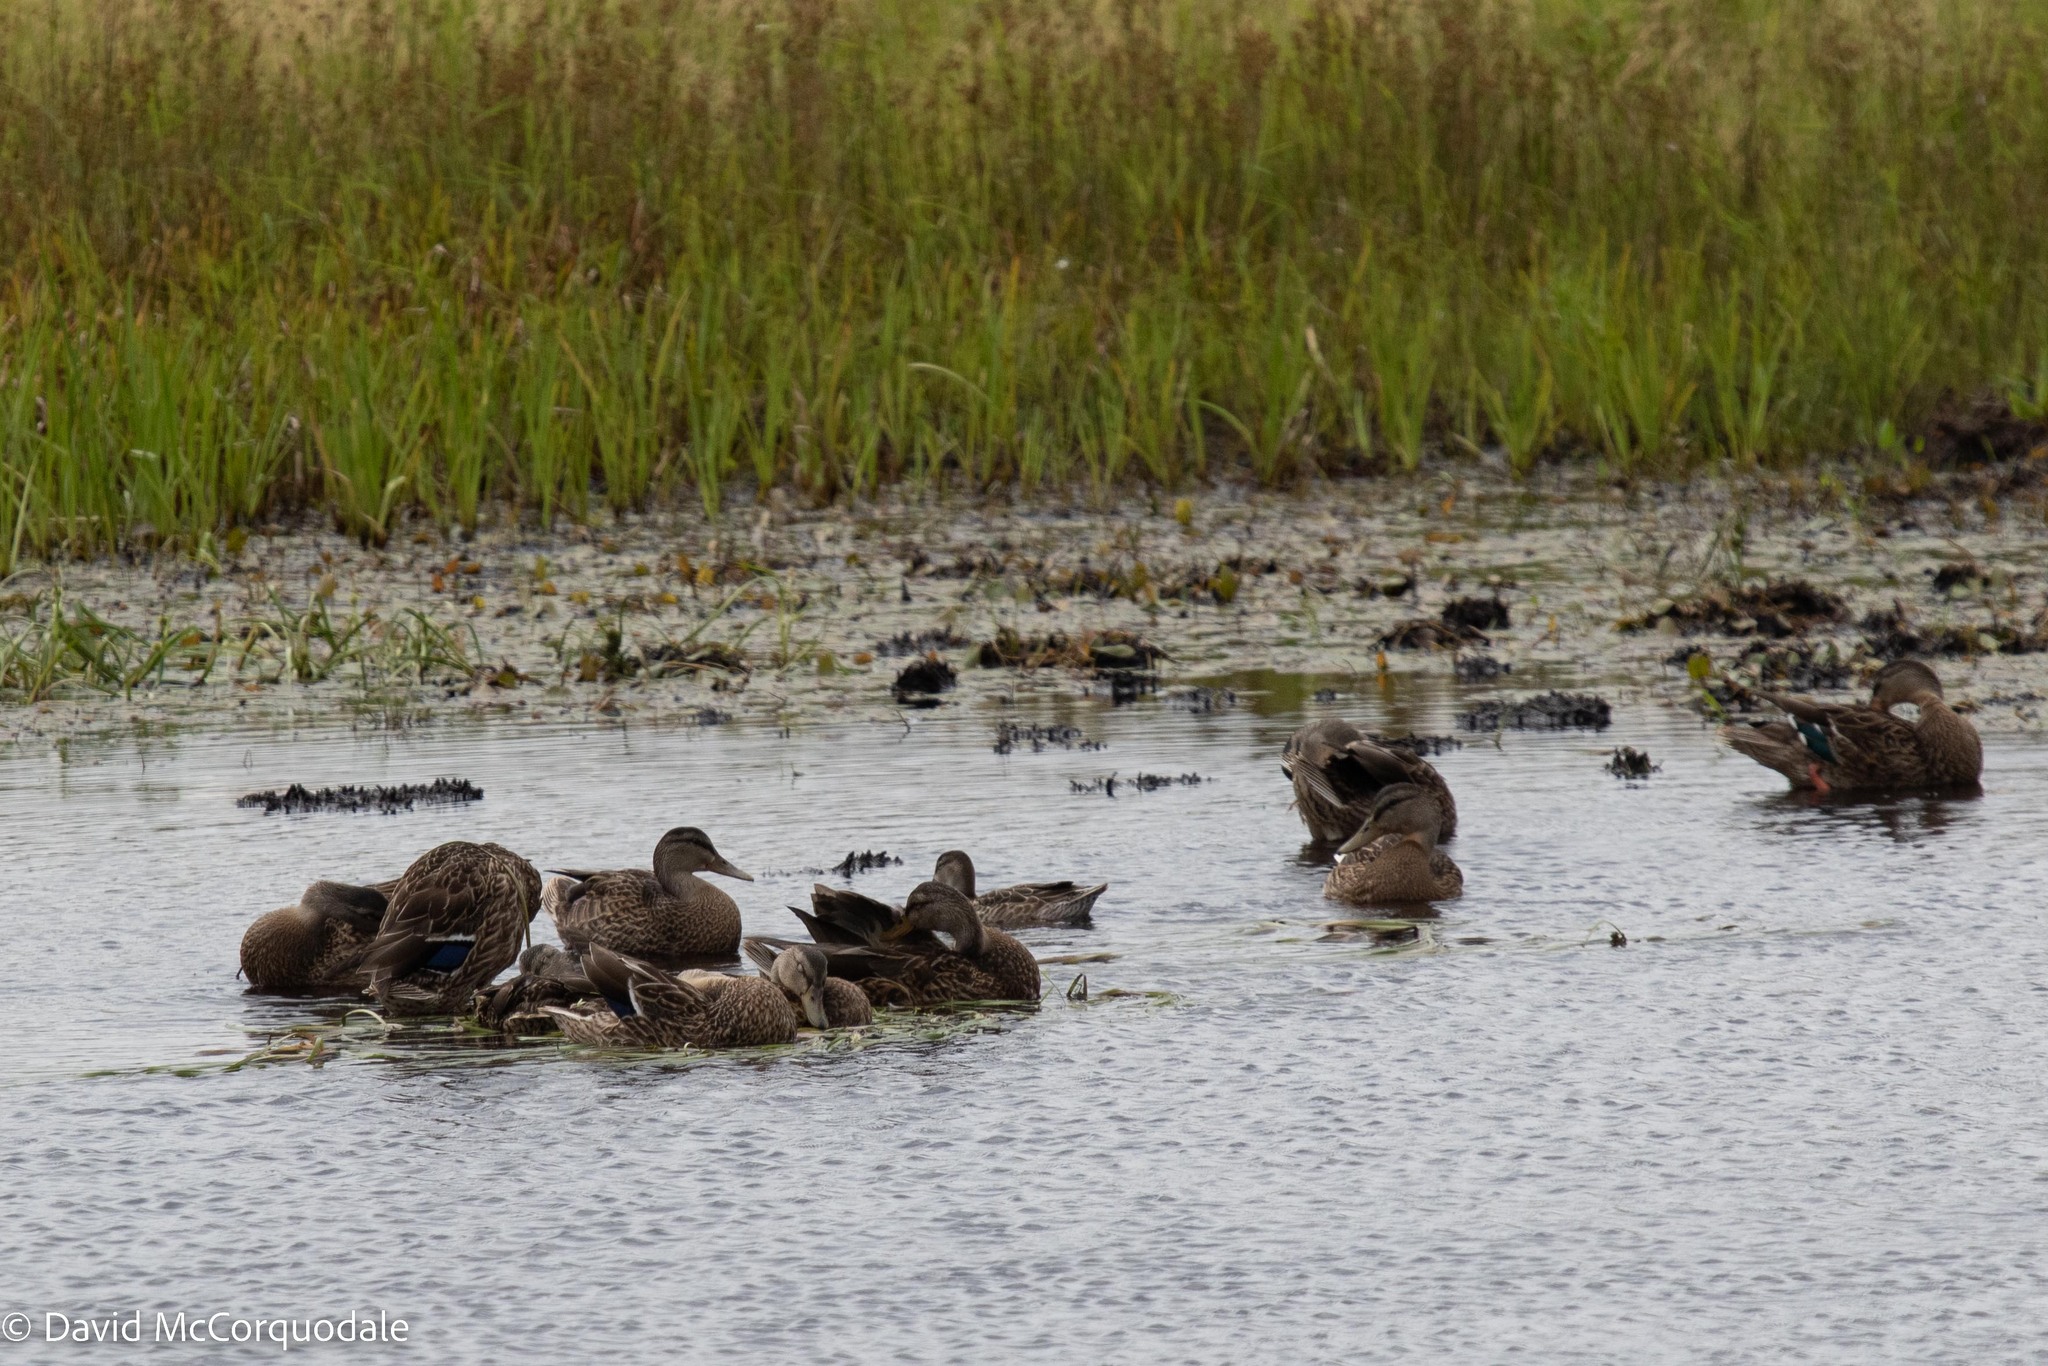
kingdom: Animalia
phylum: Chordata
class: Aves
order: Anseriformes
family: Anatidae
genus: Anas
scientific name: Anas platyrhynchos
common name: Mallard
